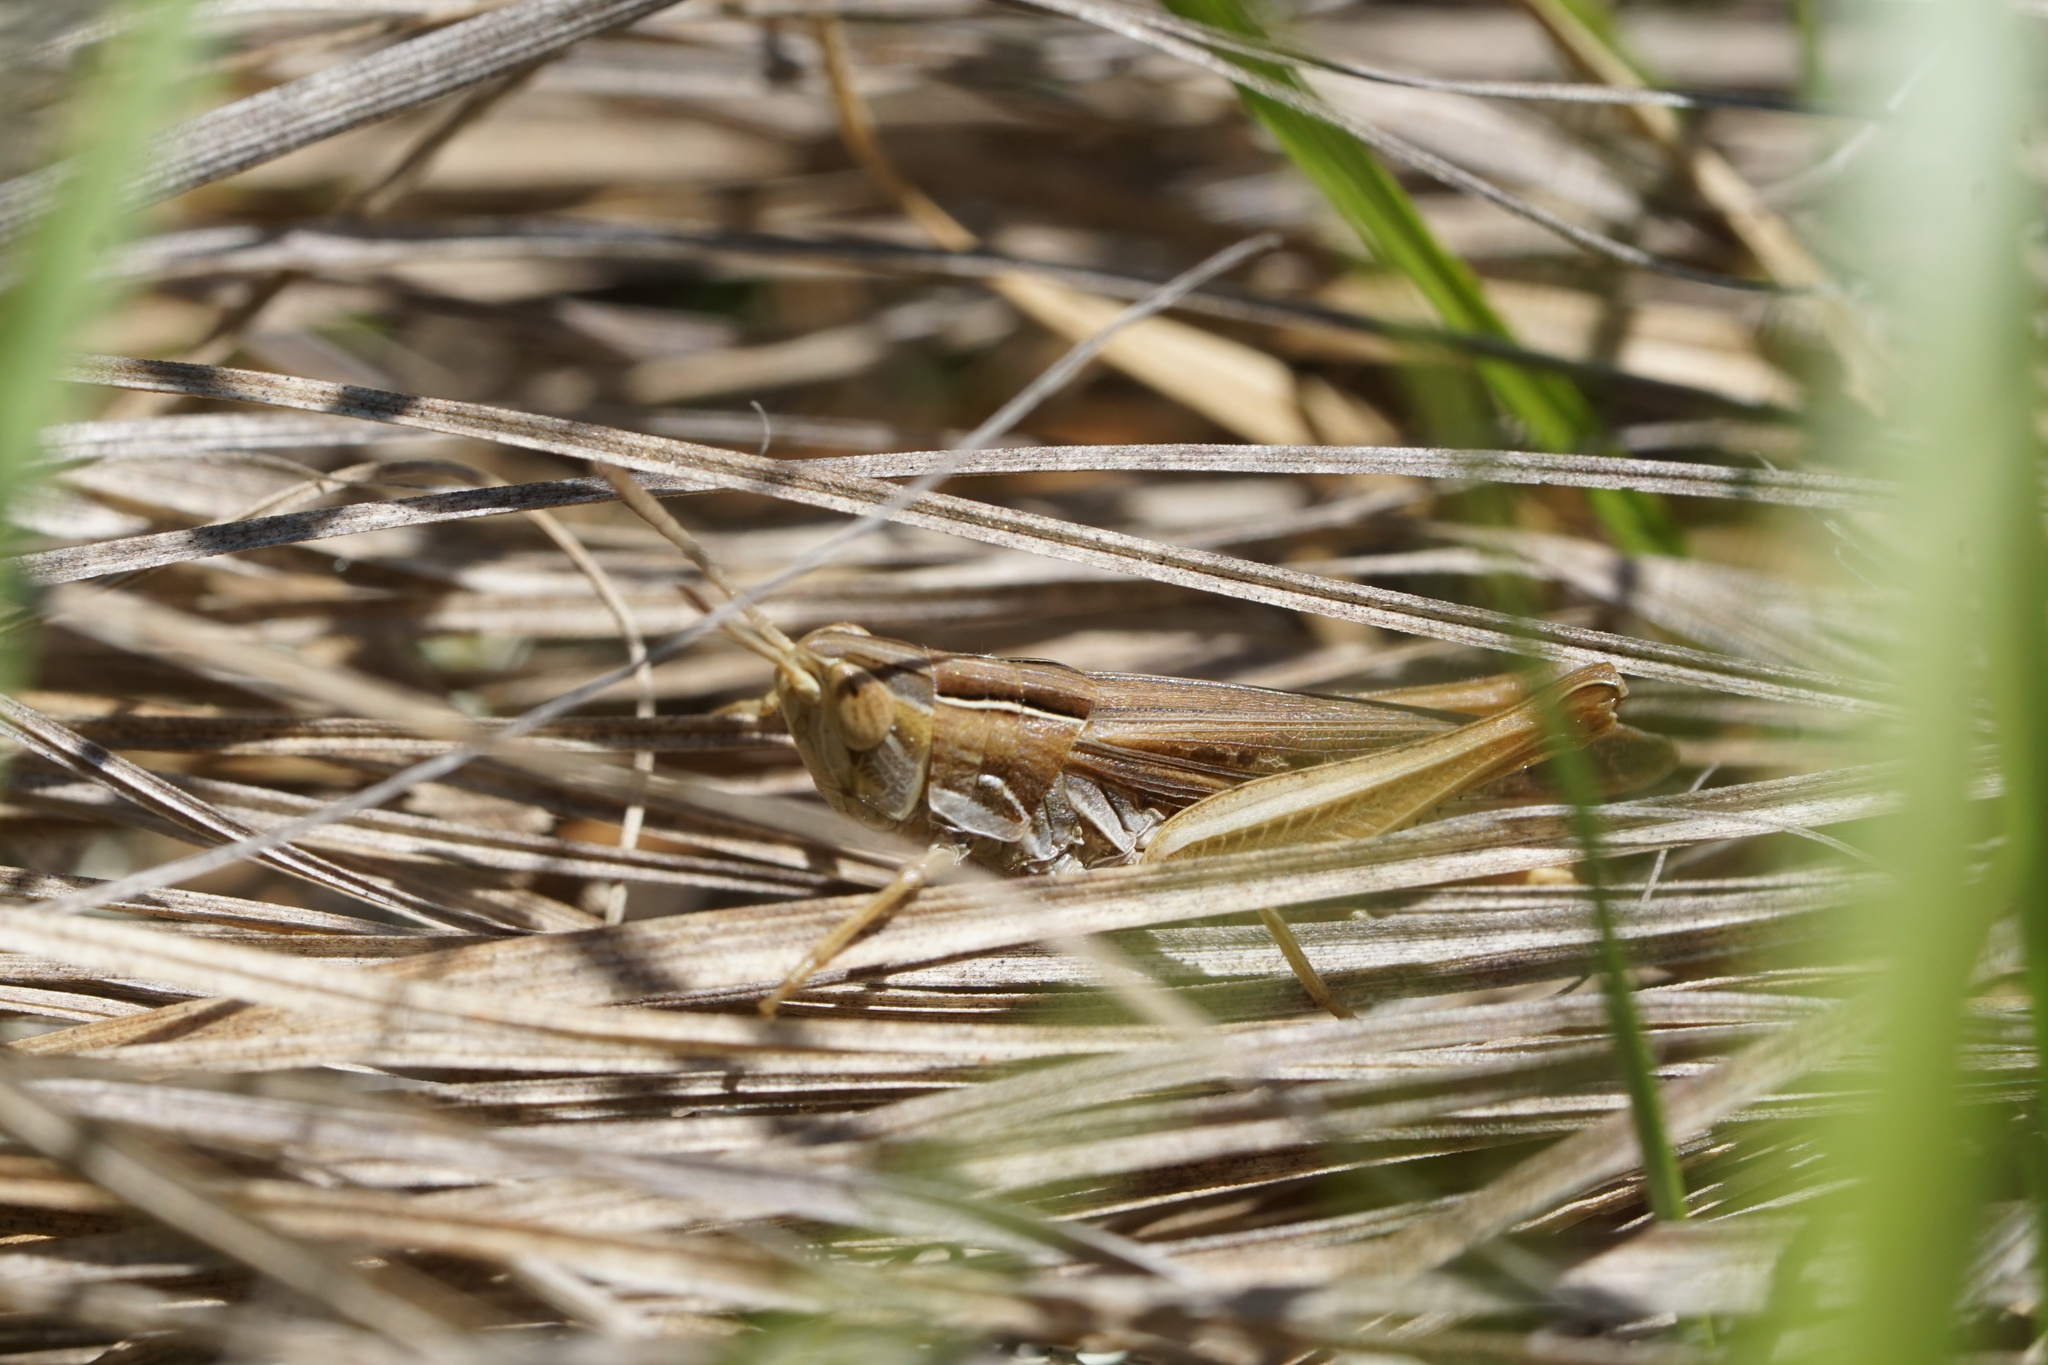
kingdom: Animalia
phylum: Arthropoda
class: Insecta
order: Orthoptera
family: Acrididae
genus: Eritettix
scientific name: Eritettix simplex
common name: Velvet-striped grasshopper
